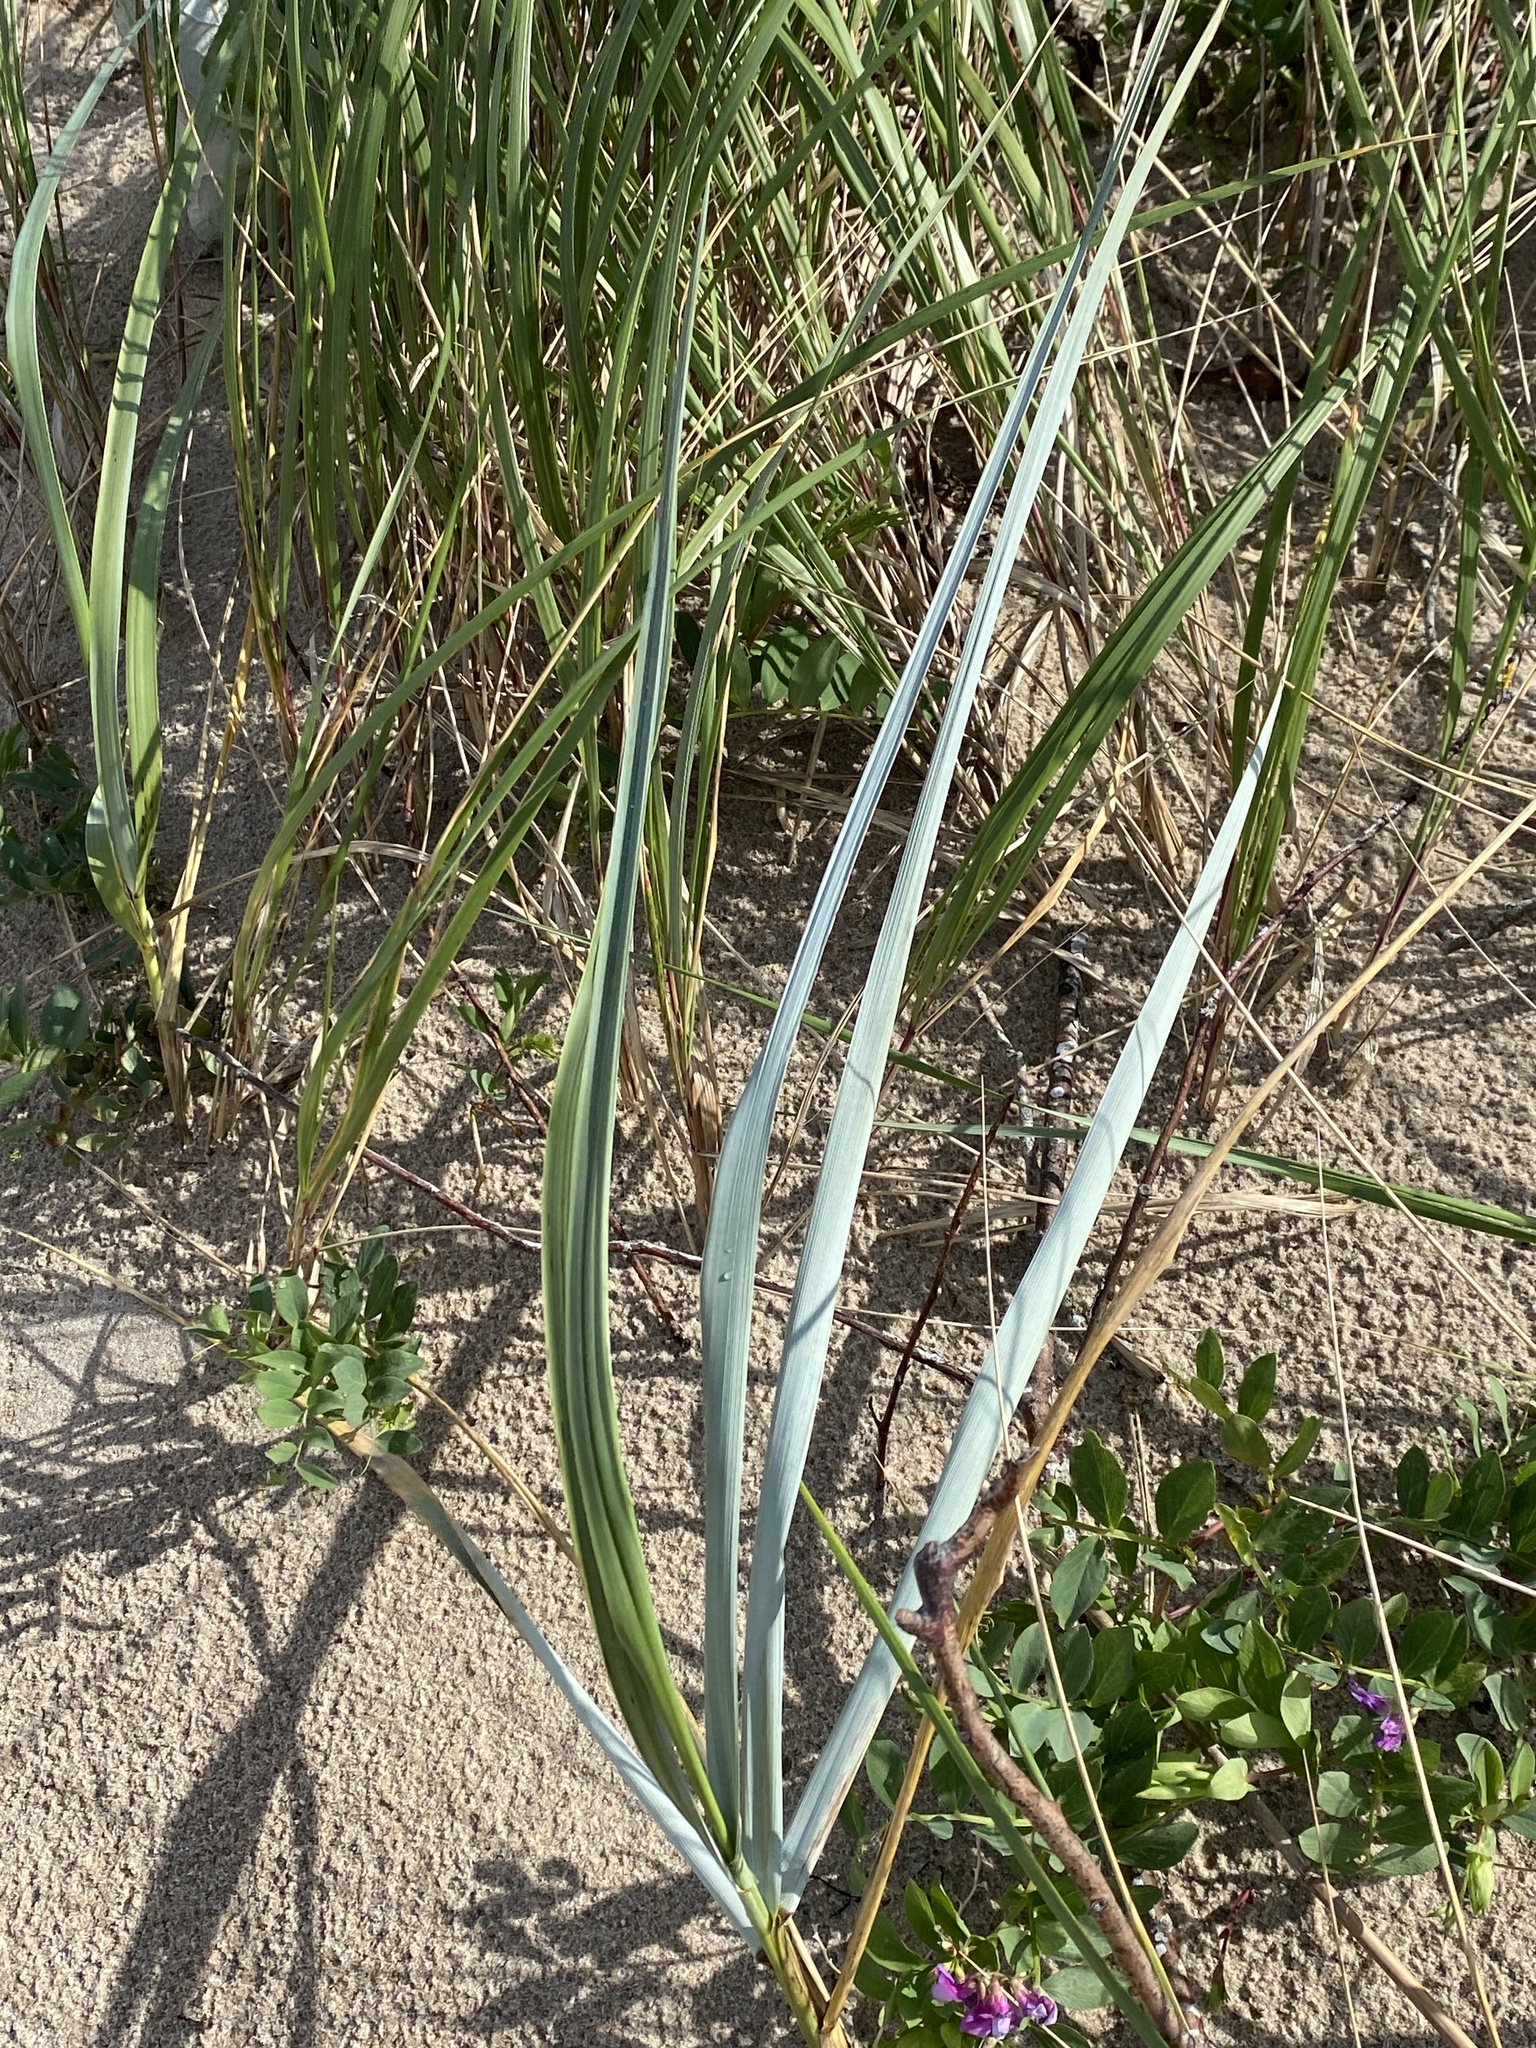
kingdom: Plantae
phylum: Tracheophyta
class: Liliopsida
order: Poales
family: Poaceae
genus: Leymus
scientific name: Leymus arenarius
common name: Lyme-grass
